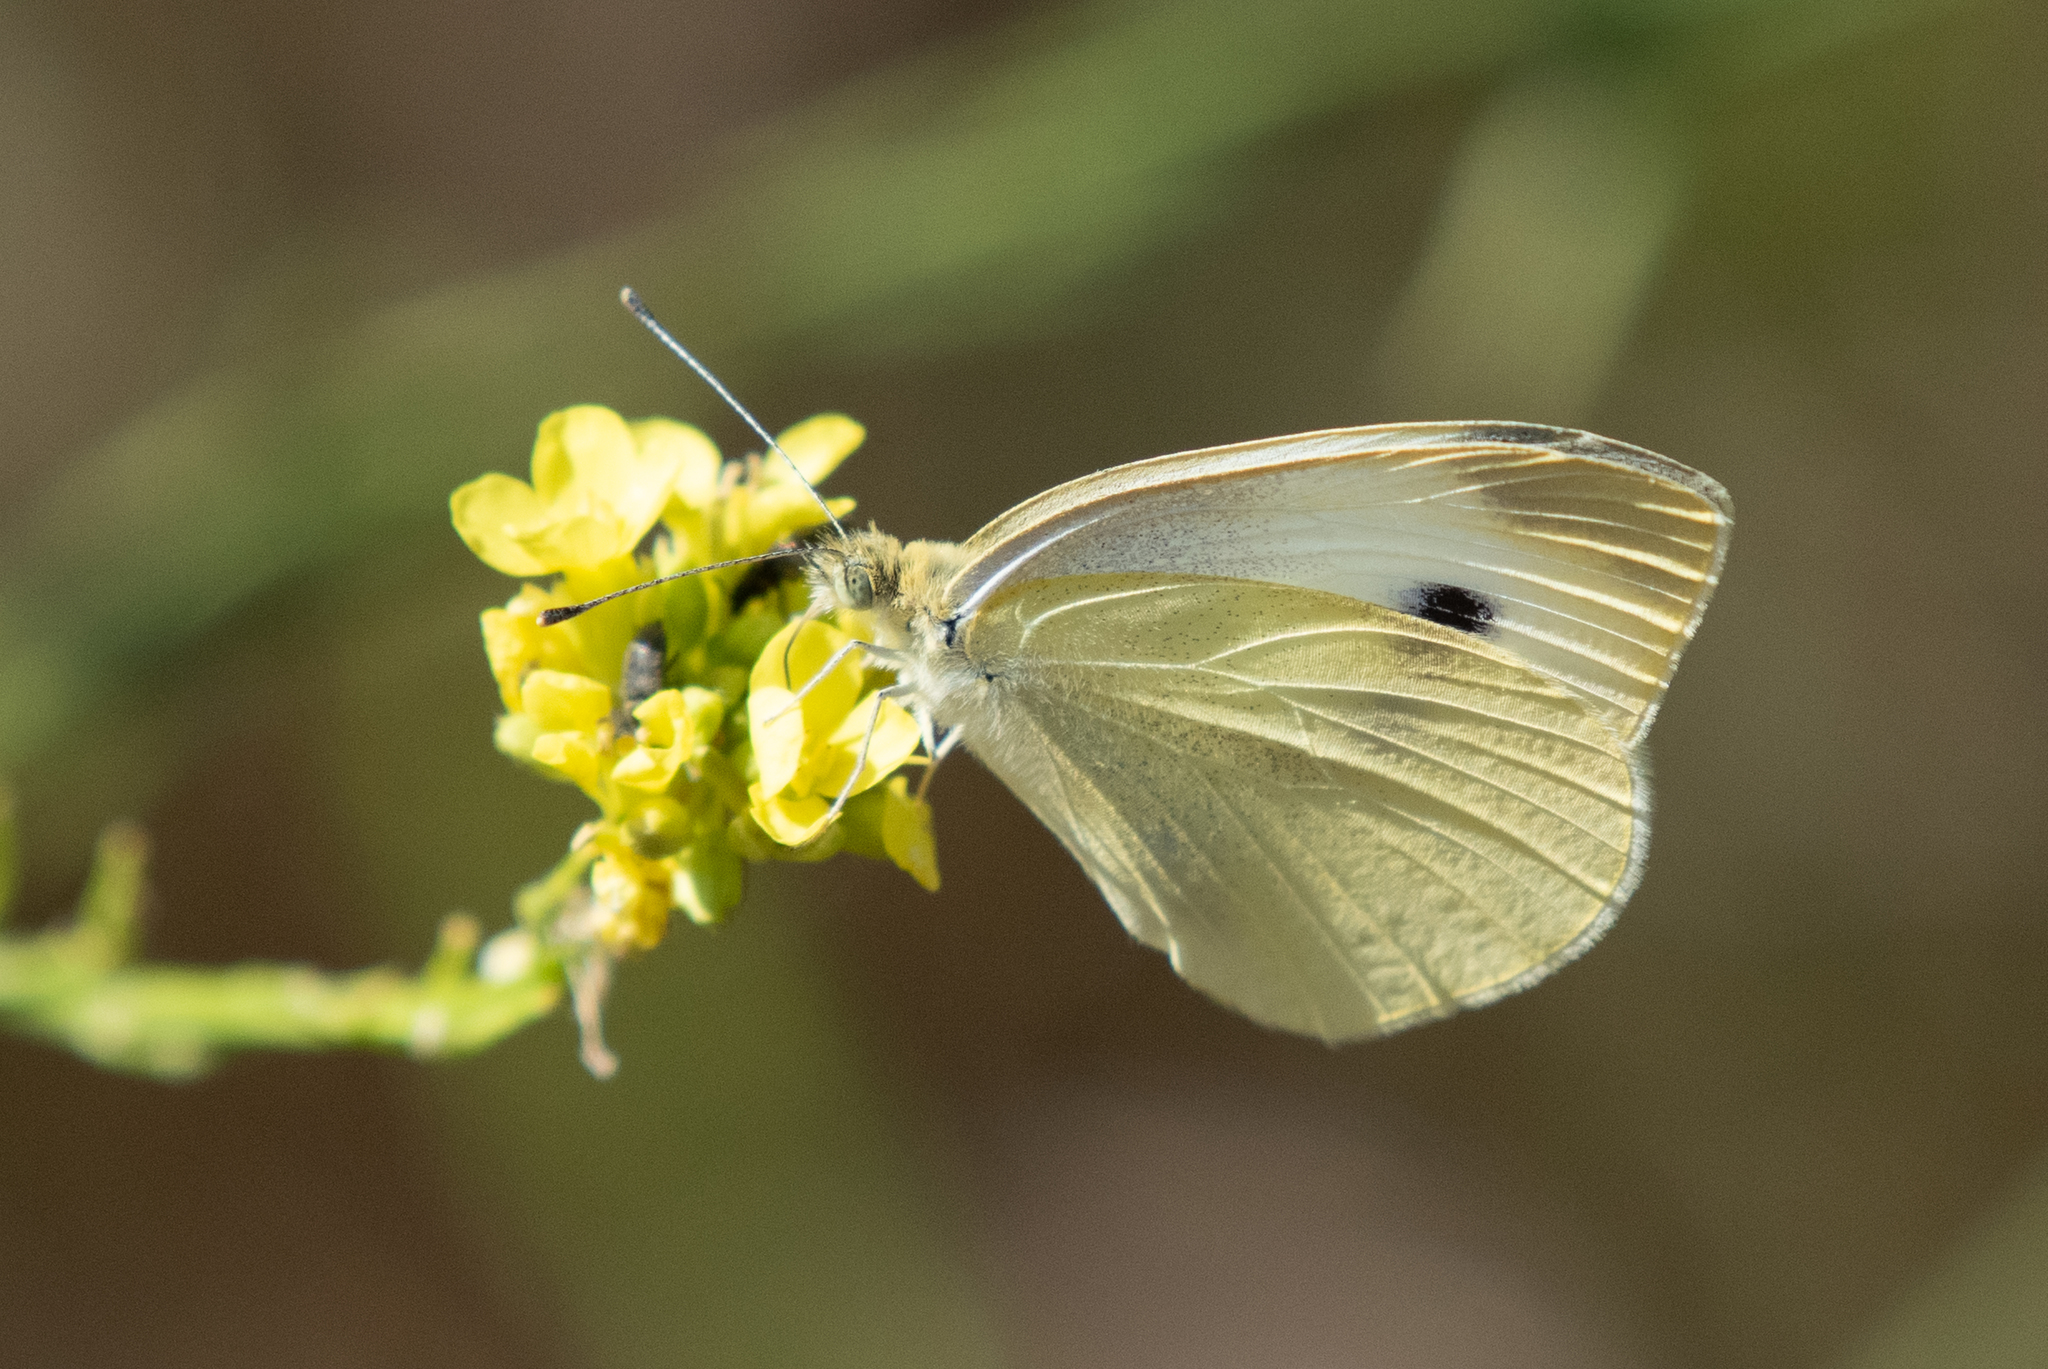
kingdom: Animalia
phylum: Arthropoda
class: Insecta
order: Lepidoptera
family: Pieridae
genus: Pieris
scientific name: Pieris rapae
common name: Small white
